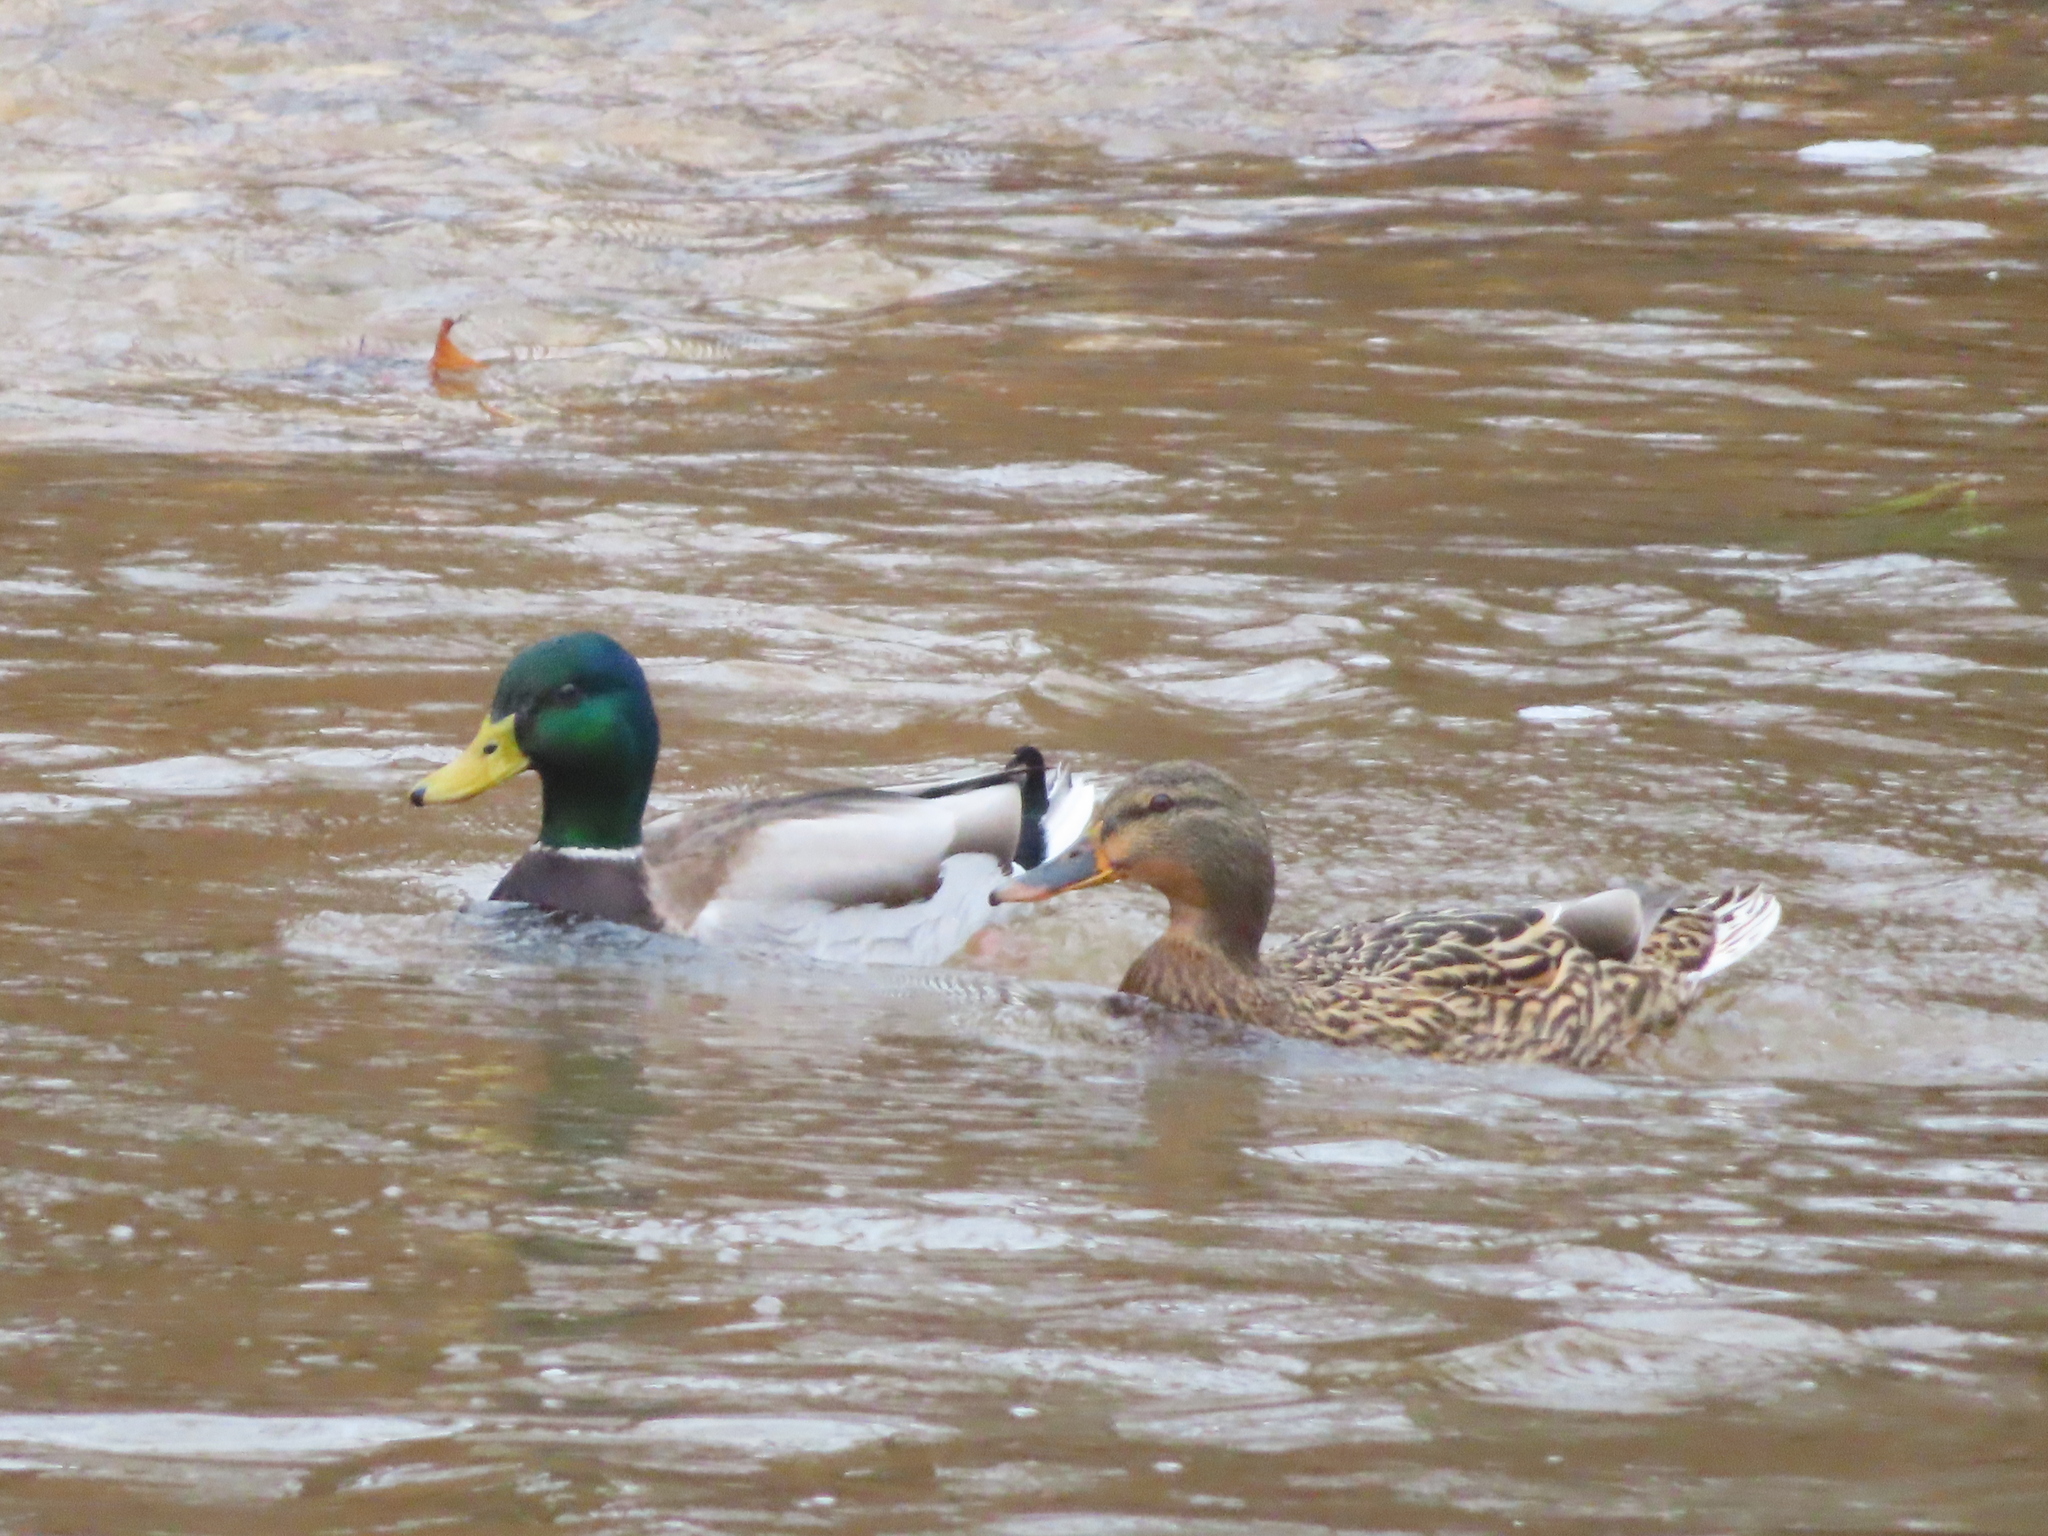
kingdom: Animalia
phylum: Chordata
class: Aves
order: Anseriformes
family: Anatidae
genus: Anas
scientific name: Anas platyrhynchos
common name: Mallard
